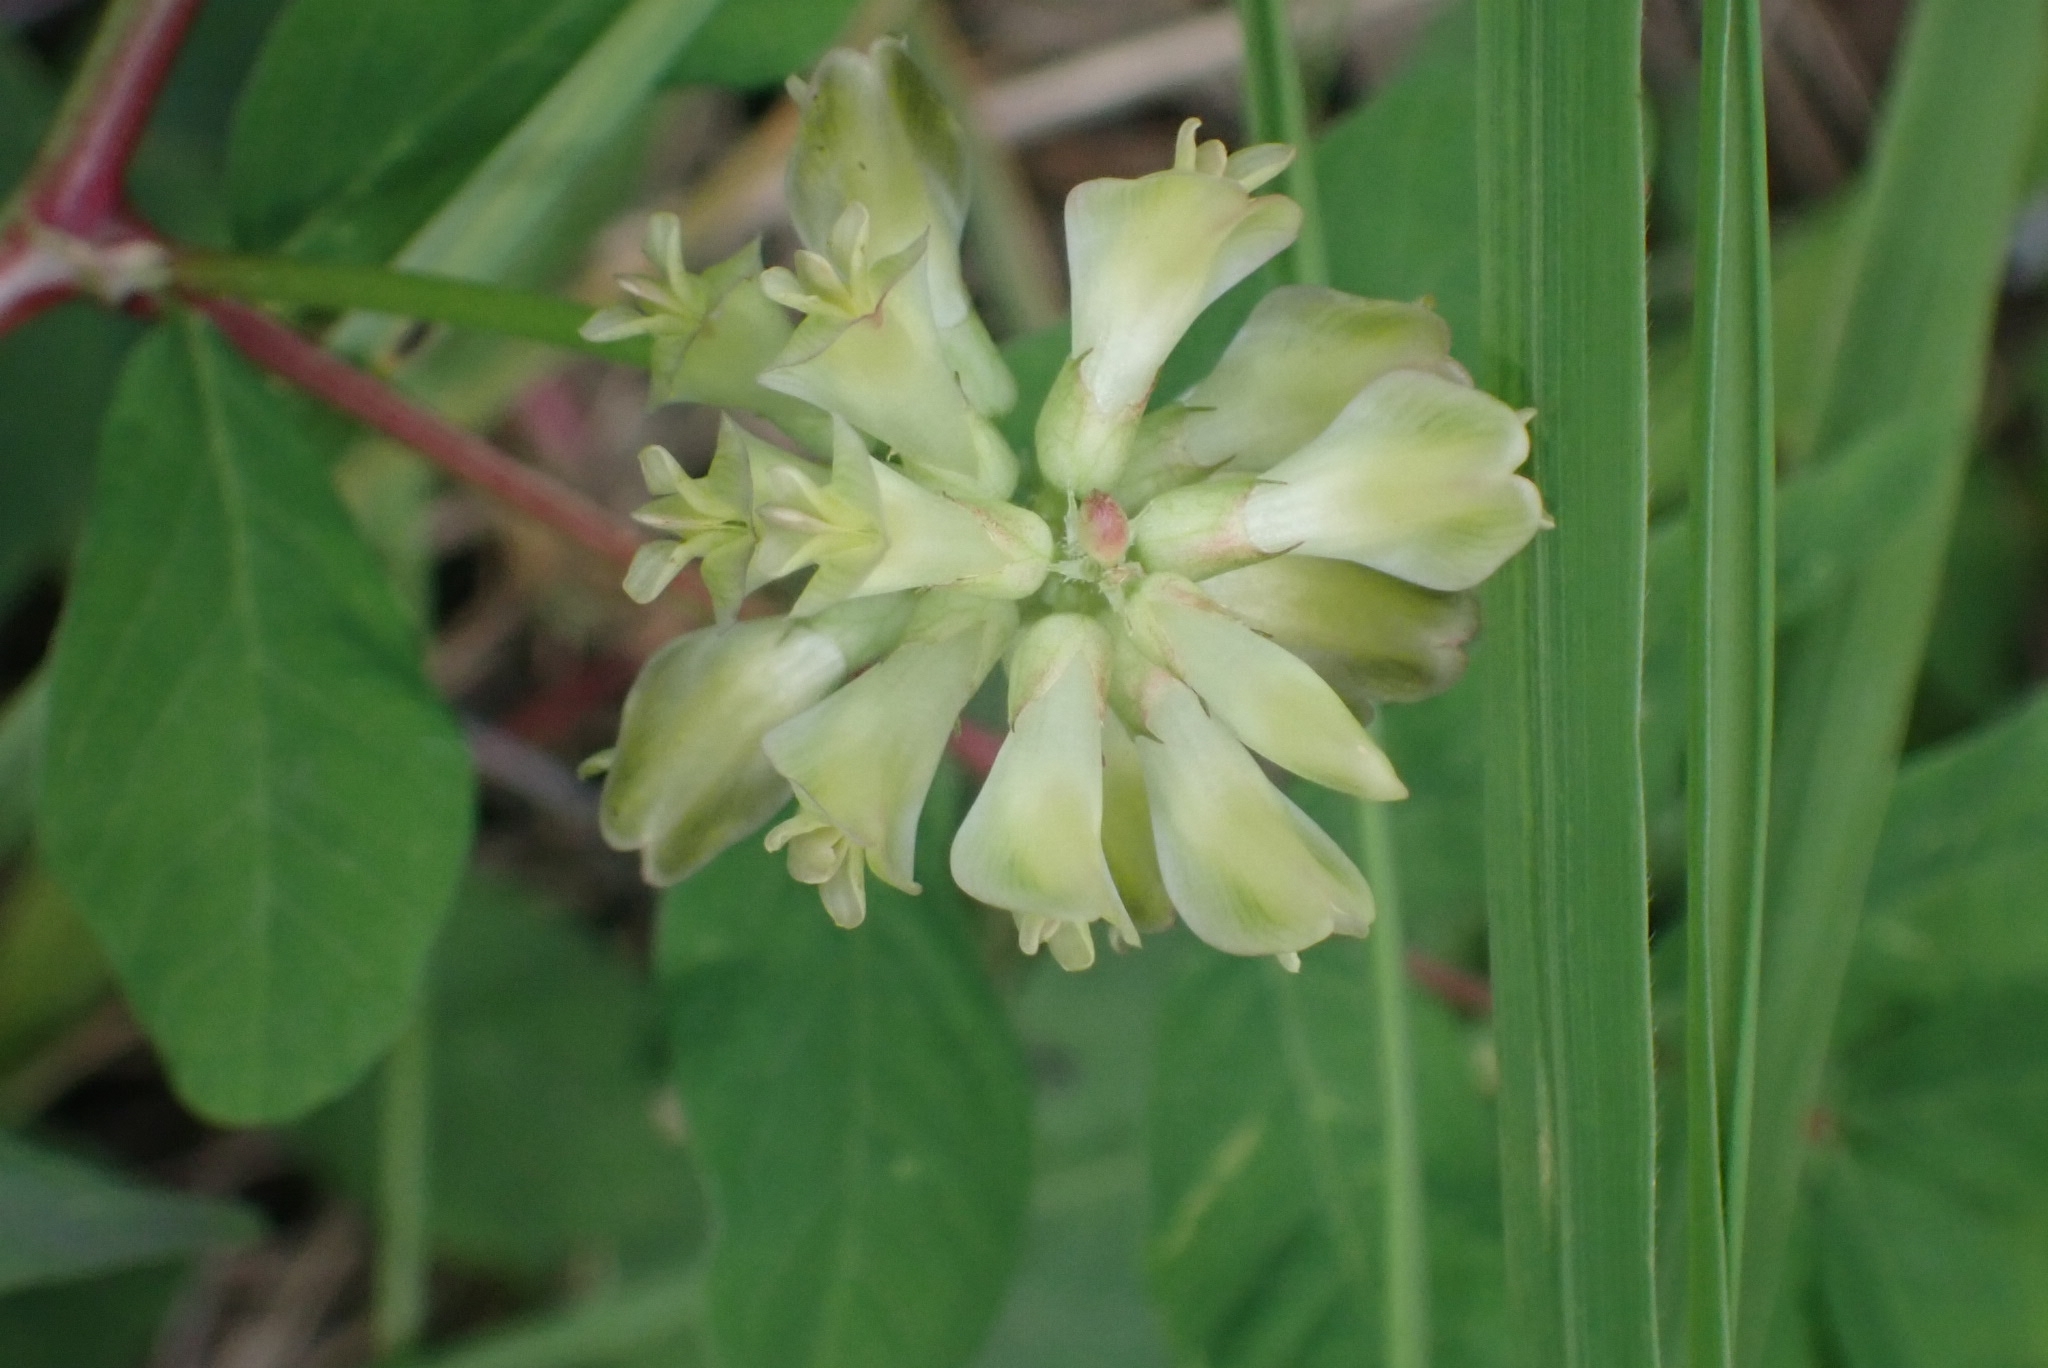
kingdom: Plantae
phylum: Tracheophyta
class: Magnoliopsida
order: Fabales
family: Fabaceae
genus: Astragalus
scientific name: Astragalus glycyphyllos
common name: Wild liquorice
